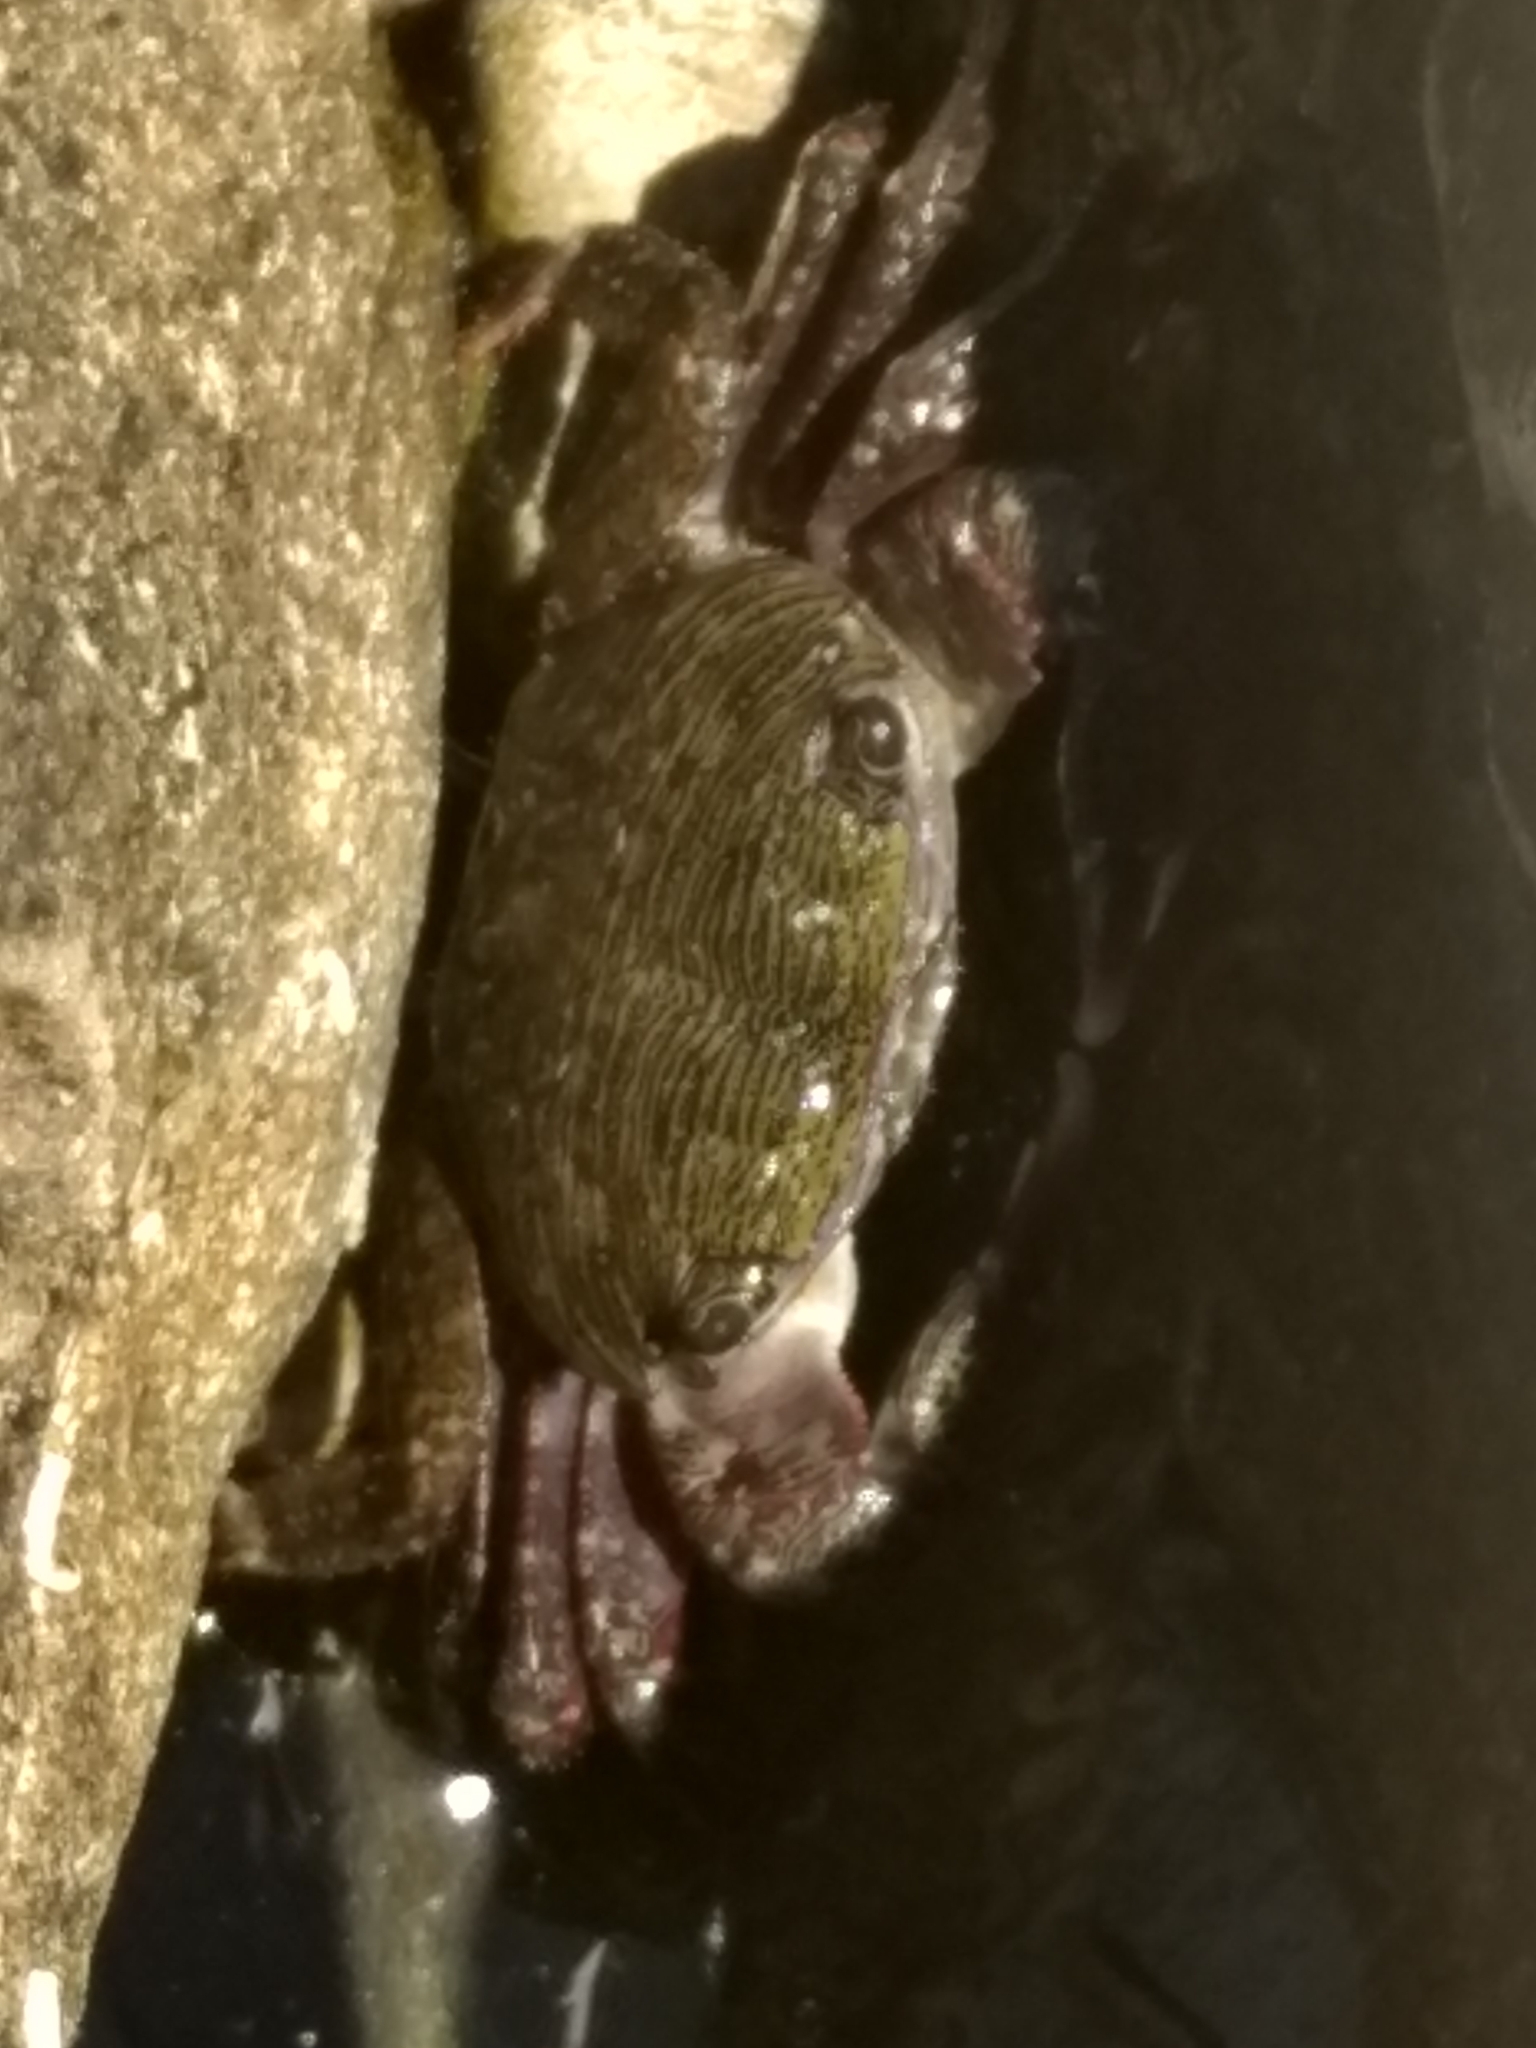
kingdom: Animalia
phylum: Arthropoda
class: Malacostraca
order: Decapoda
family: Grapsidae
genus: Pachygrapsus
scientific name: Pachygrapsus crassipes
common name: Striped shore crab
